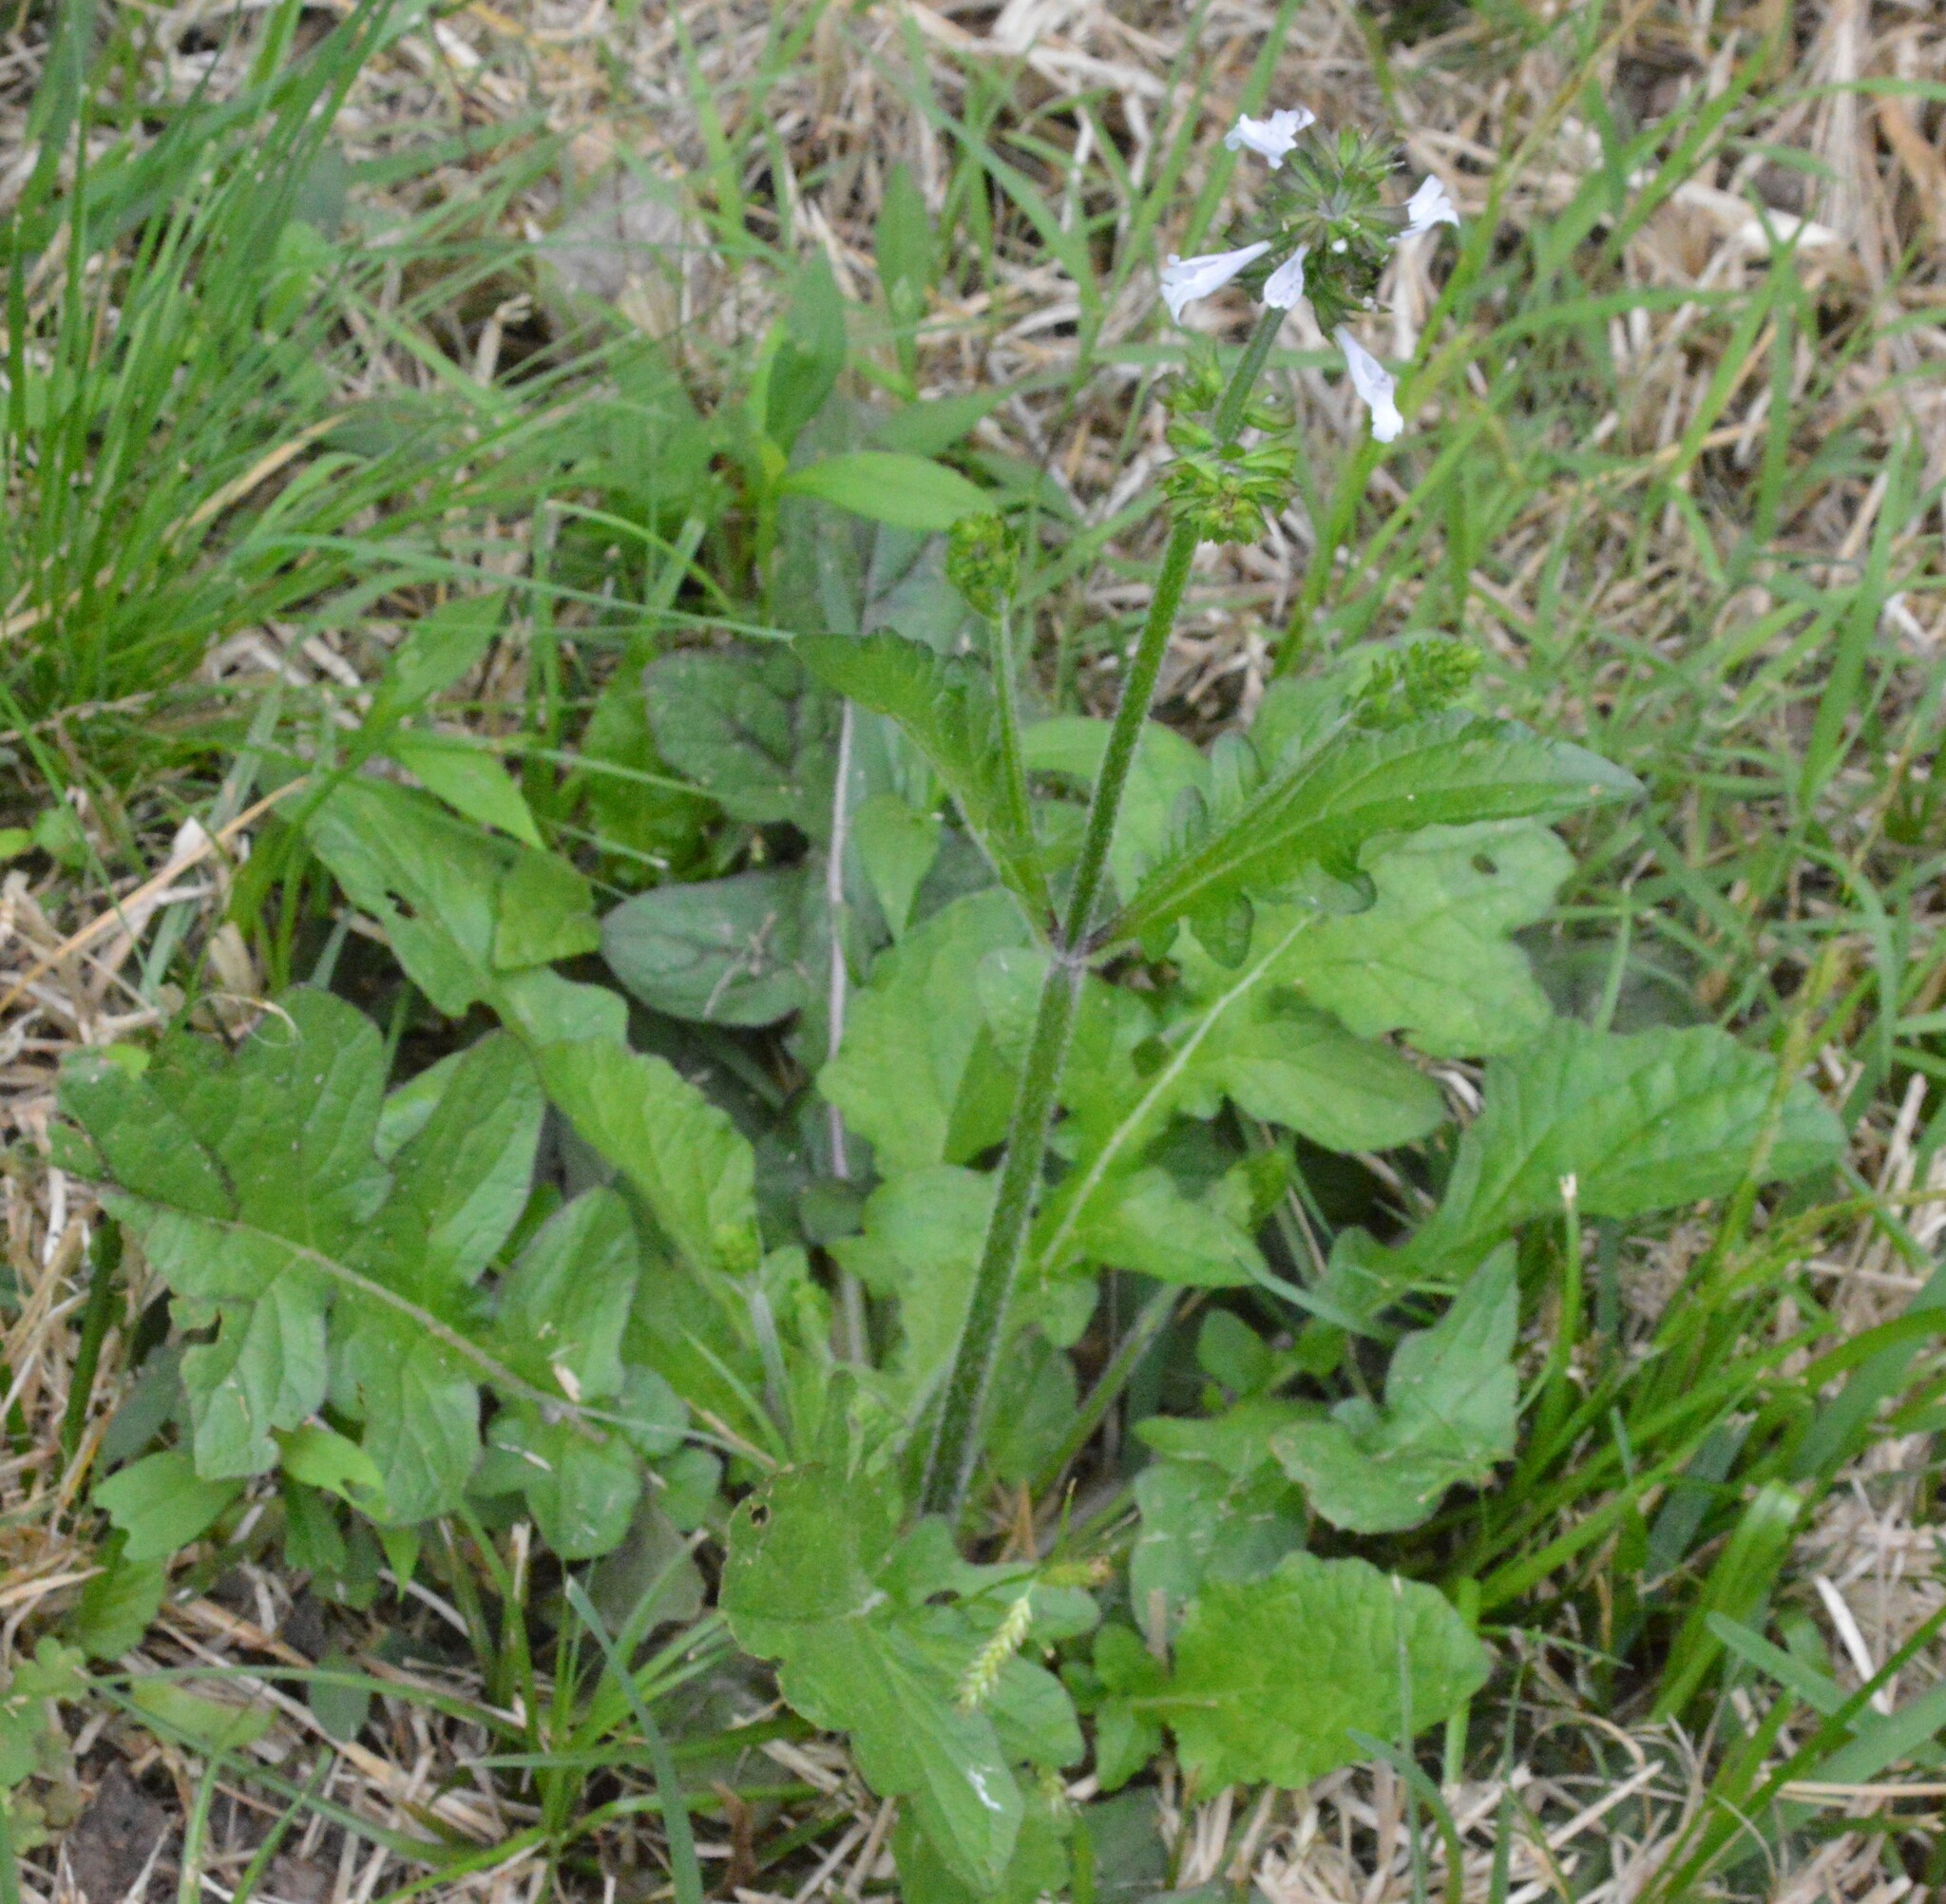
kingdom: Plantae
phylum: Tracheophyta
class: Magnoliopsida
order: Lamiales
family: Lamiaceae
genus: Salvia
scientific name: Salvia lyrata
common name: Cancerweed
